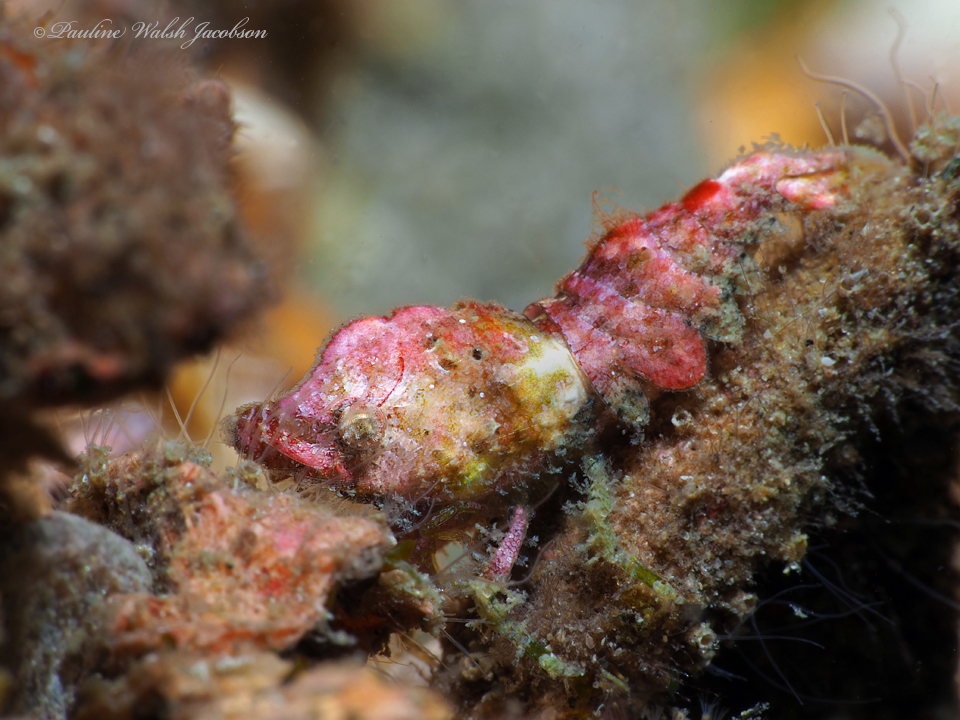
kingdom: Animalia
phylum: Arthropoda
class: Malacostraca
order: Decapoda
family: Hippolytidae
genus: Trachycaris
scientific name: Trachycaris rugosa
